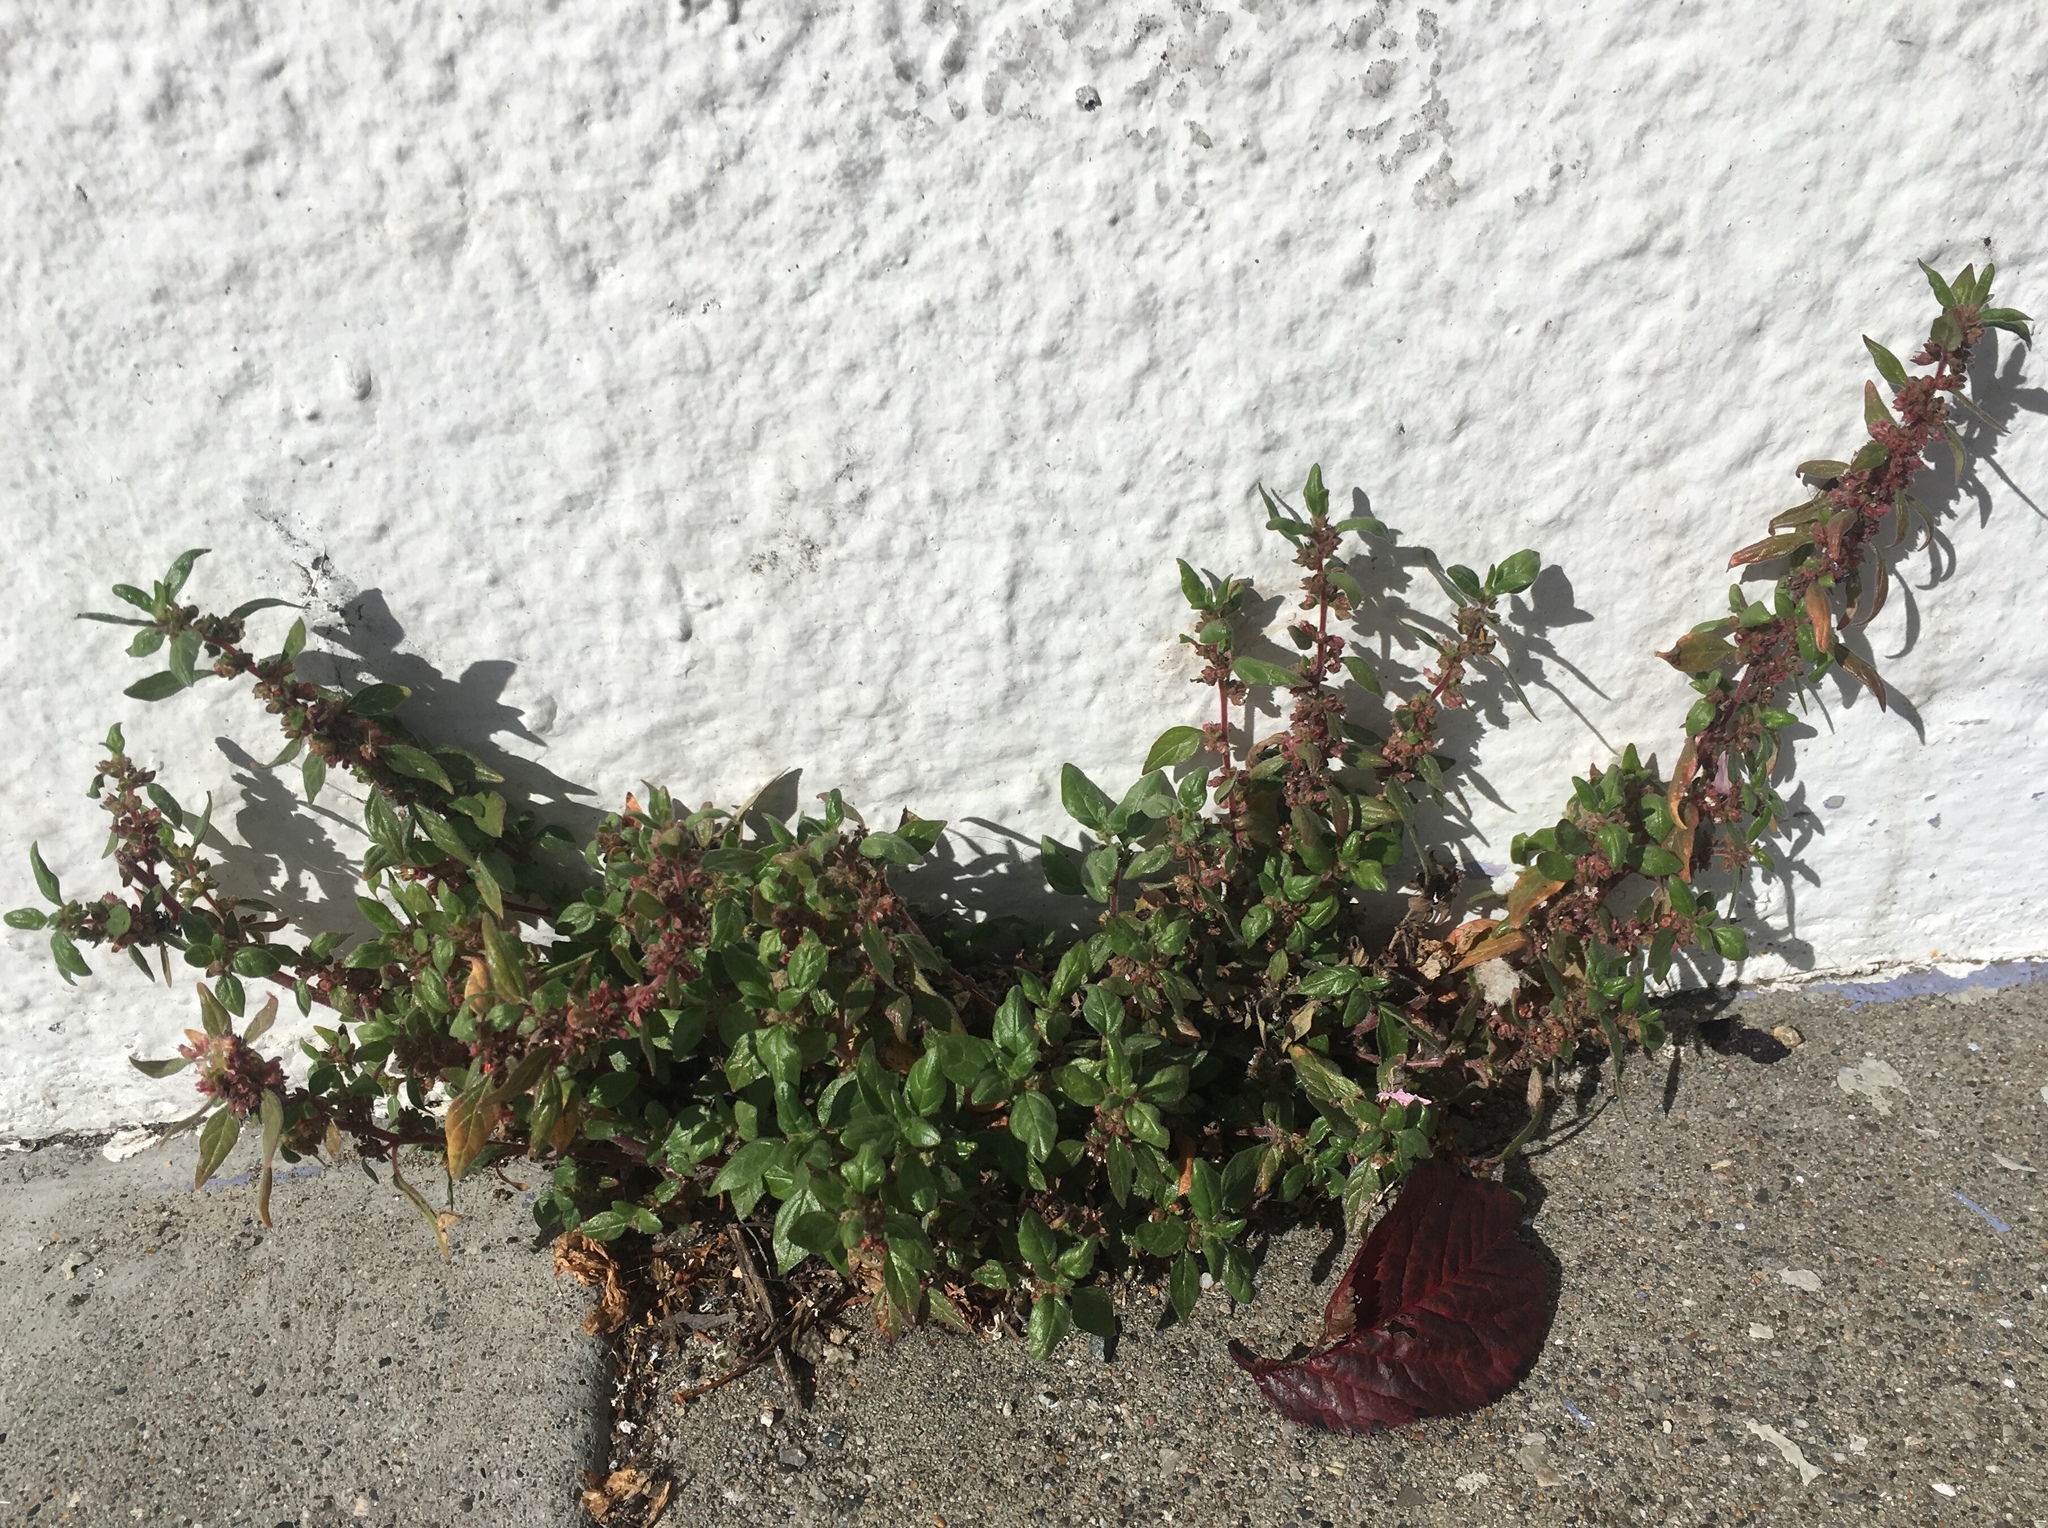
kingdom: Plantae
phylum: Tracheophyta
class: Magnoliopsida
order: Rosales
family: Urticaceae
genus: Parietaria
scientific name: Parietaria judaica
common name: Pellitory-of-the-wall
